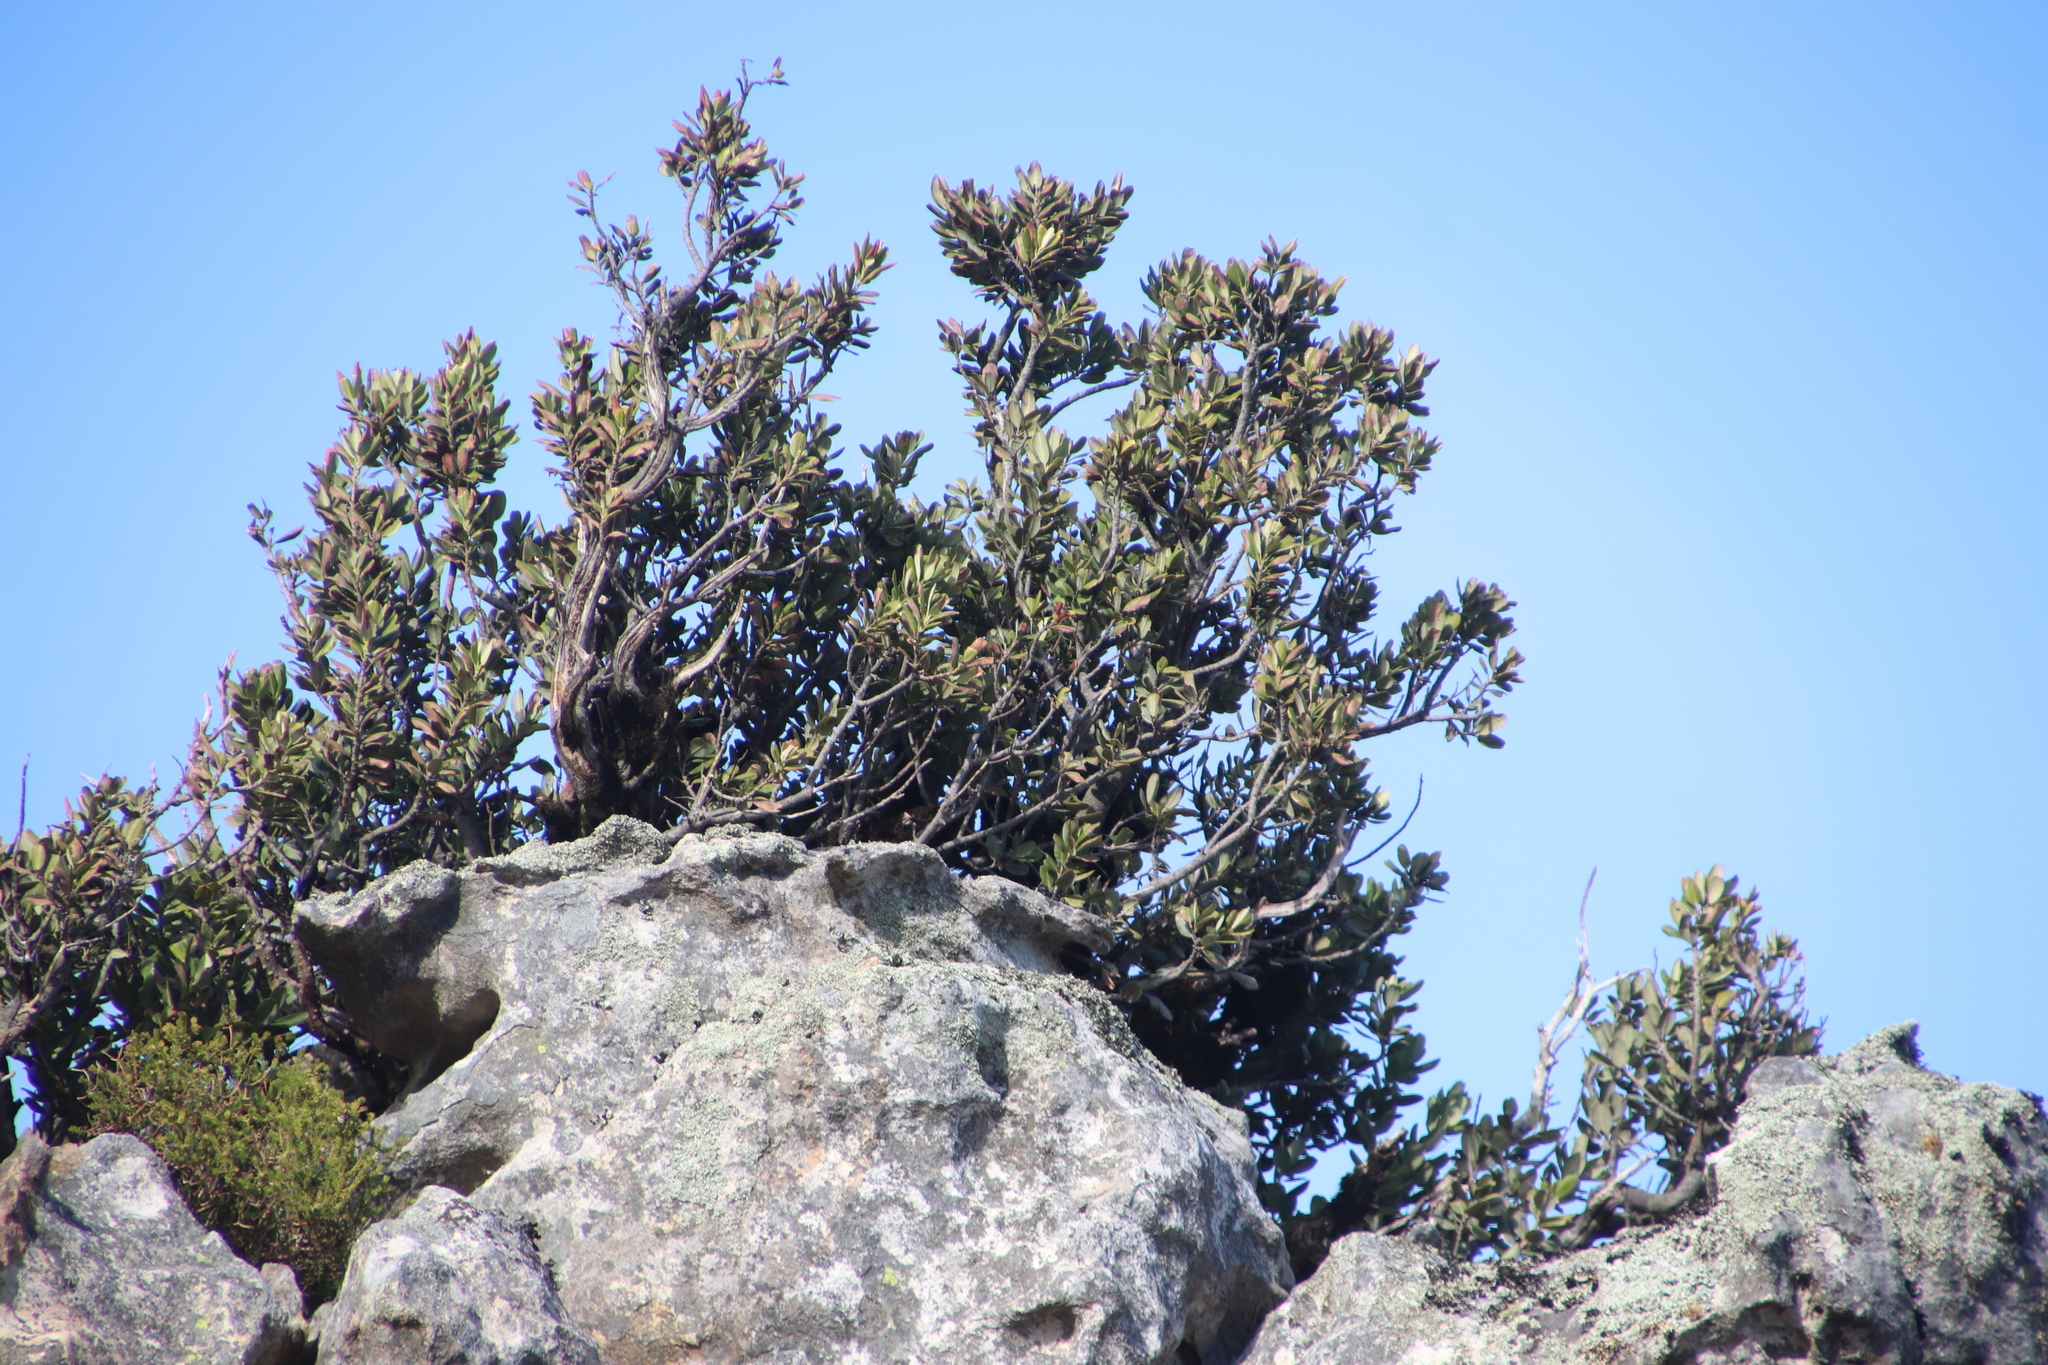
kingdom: Plantae
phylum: Tracheophyta
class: Magnoliopsida
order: Sapindales
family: Anacardiaceae
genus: Heeria
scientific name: Heeria argentea
